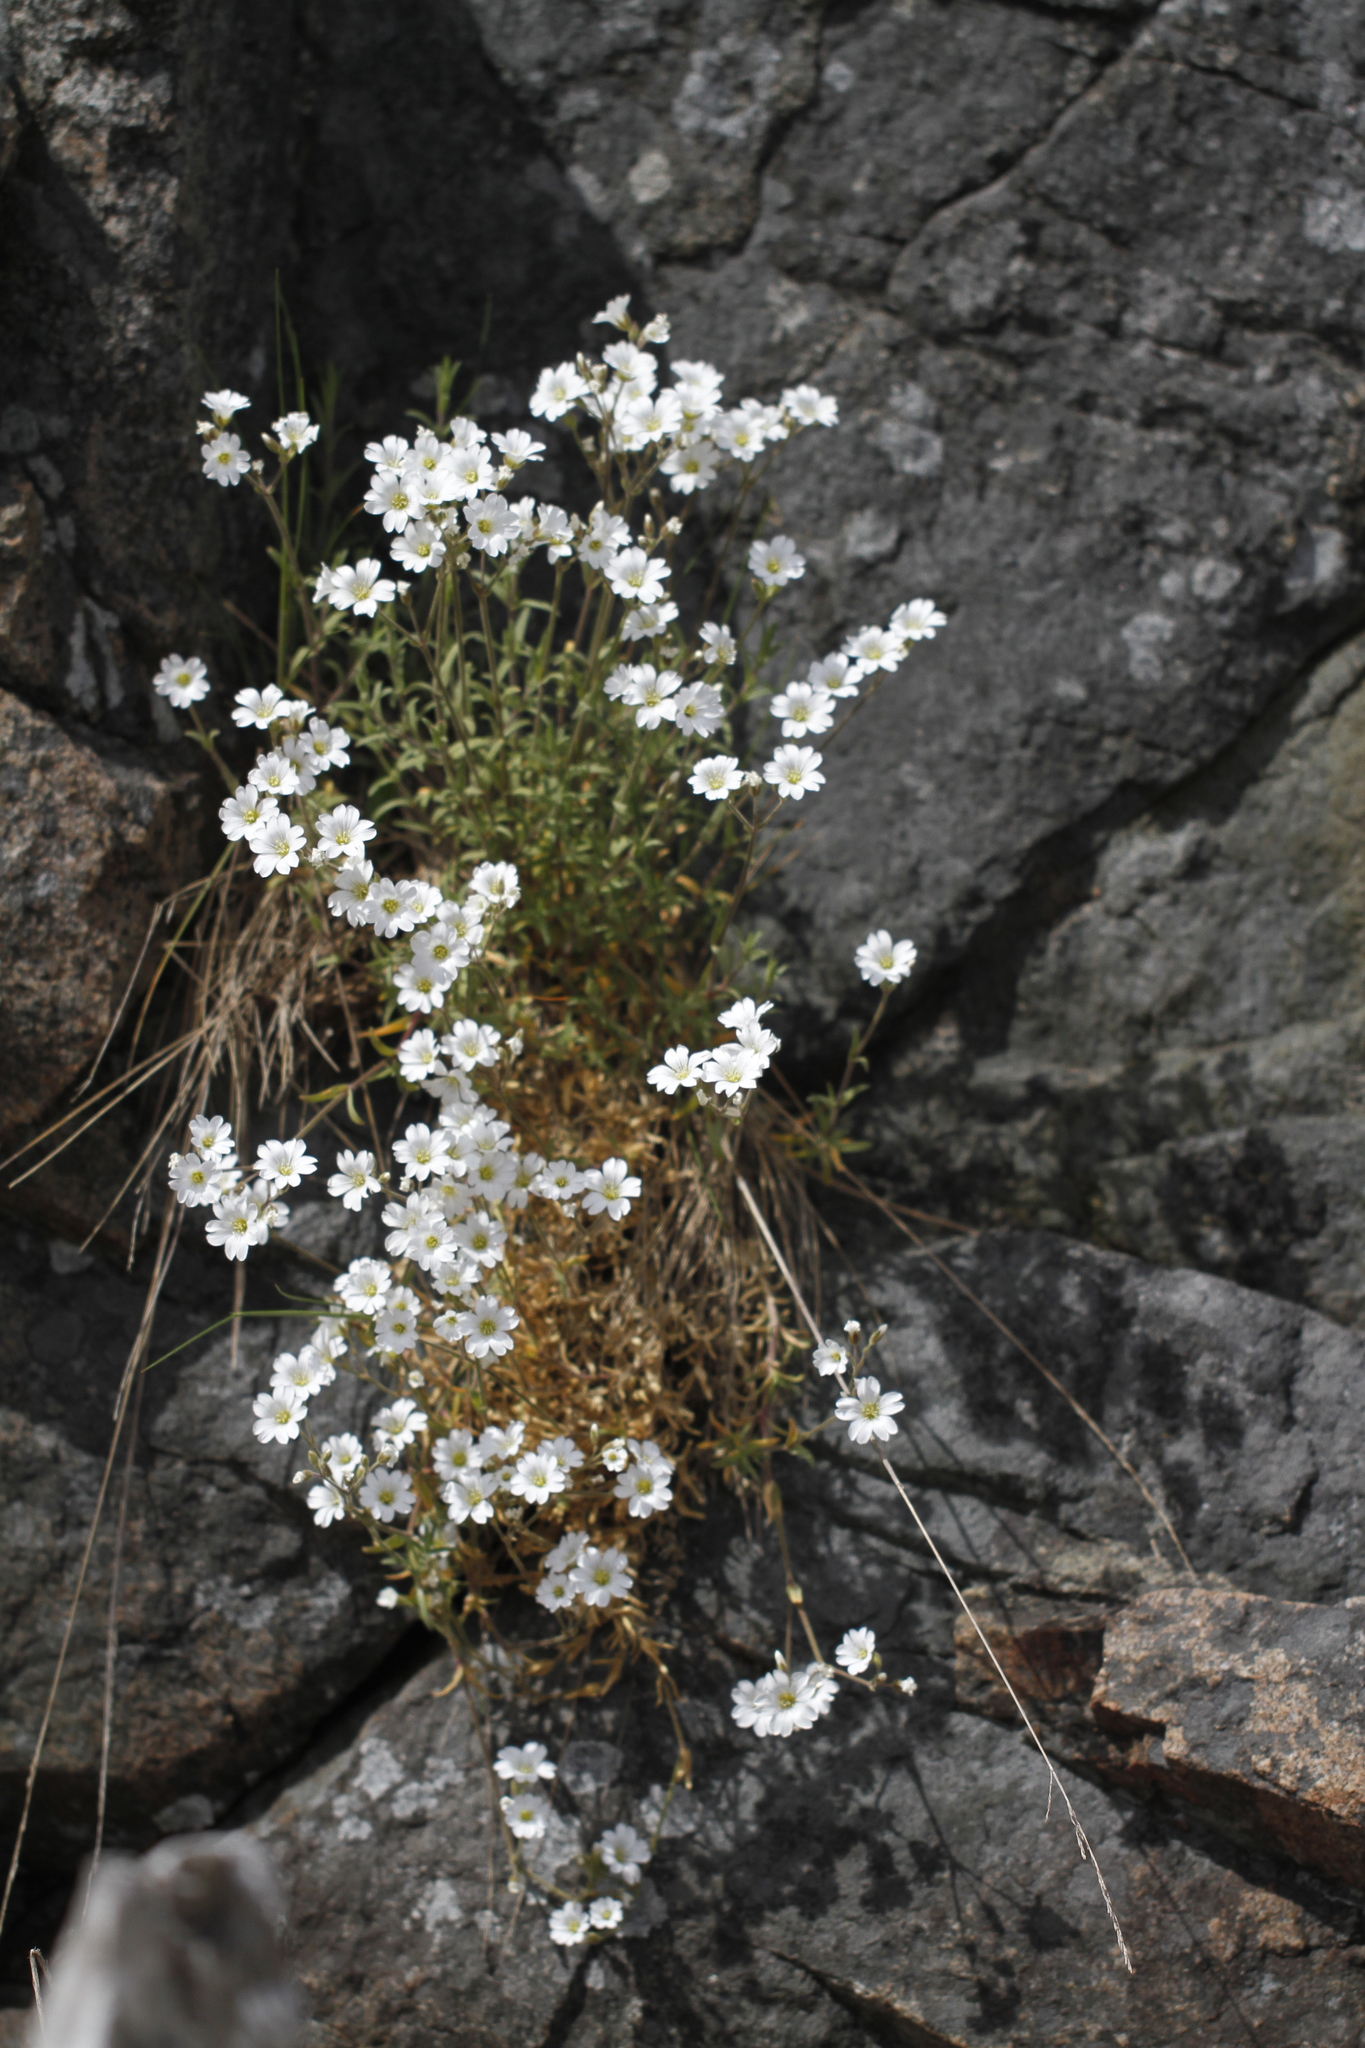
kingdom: Plantae
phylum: Tracheophyta
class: Magnoliopsida
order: Caryophyllales
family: Caryophyllaceae
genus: Cerastium
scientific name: Cerastium arvense
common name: Field mouse-ear
